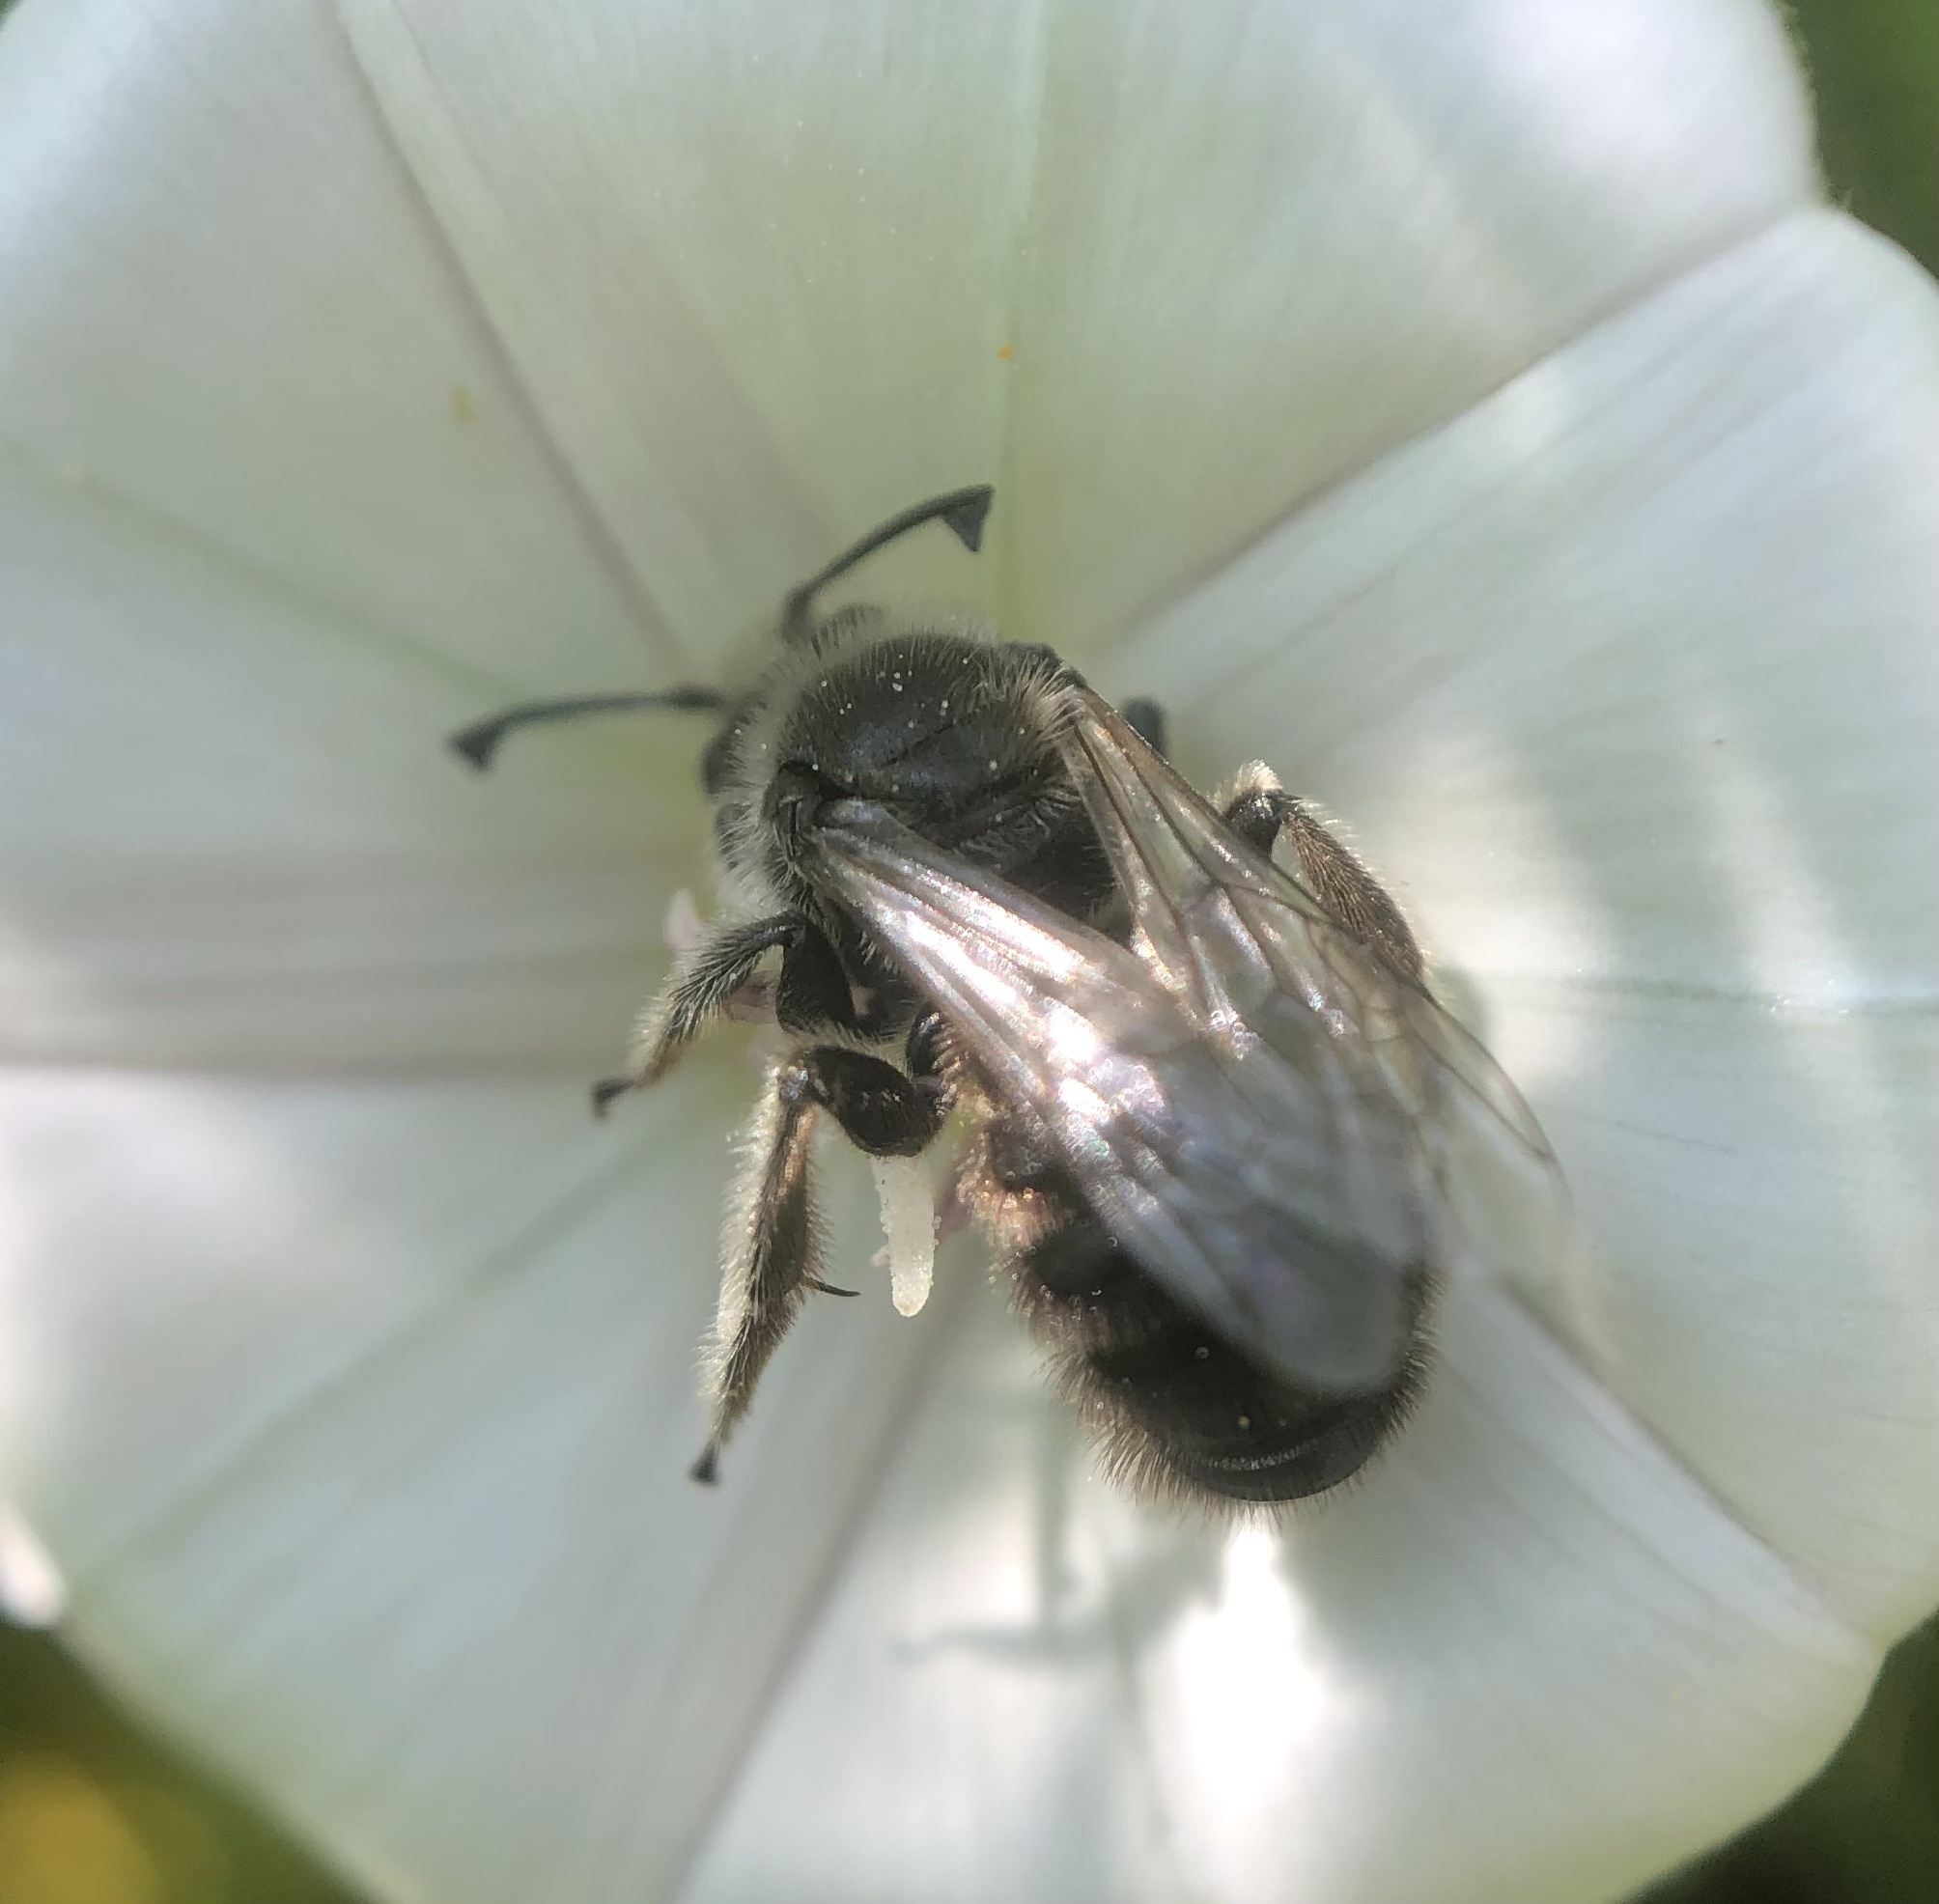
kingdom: Animalia
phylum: Arthropoda
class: Insecta
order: Hymenoptera
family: Halictidae
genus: Systropha
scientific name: Systropha curvicornis
